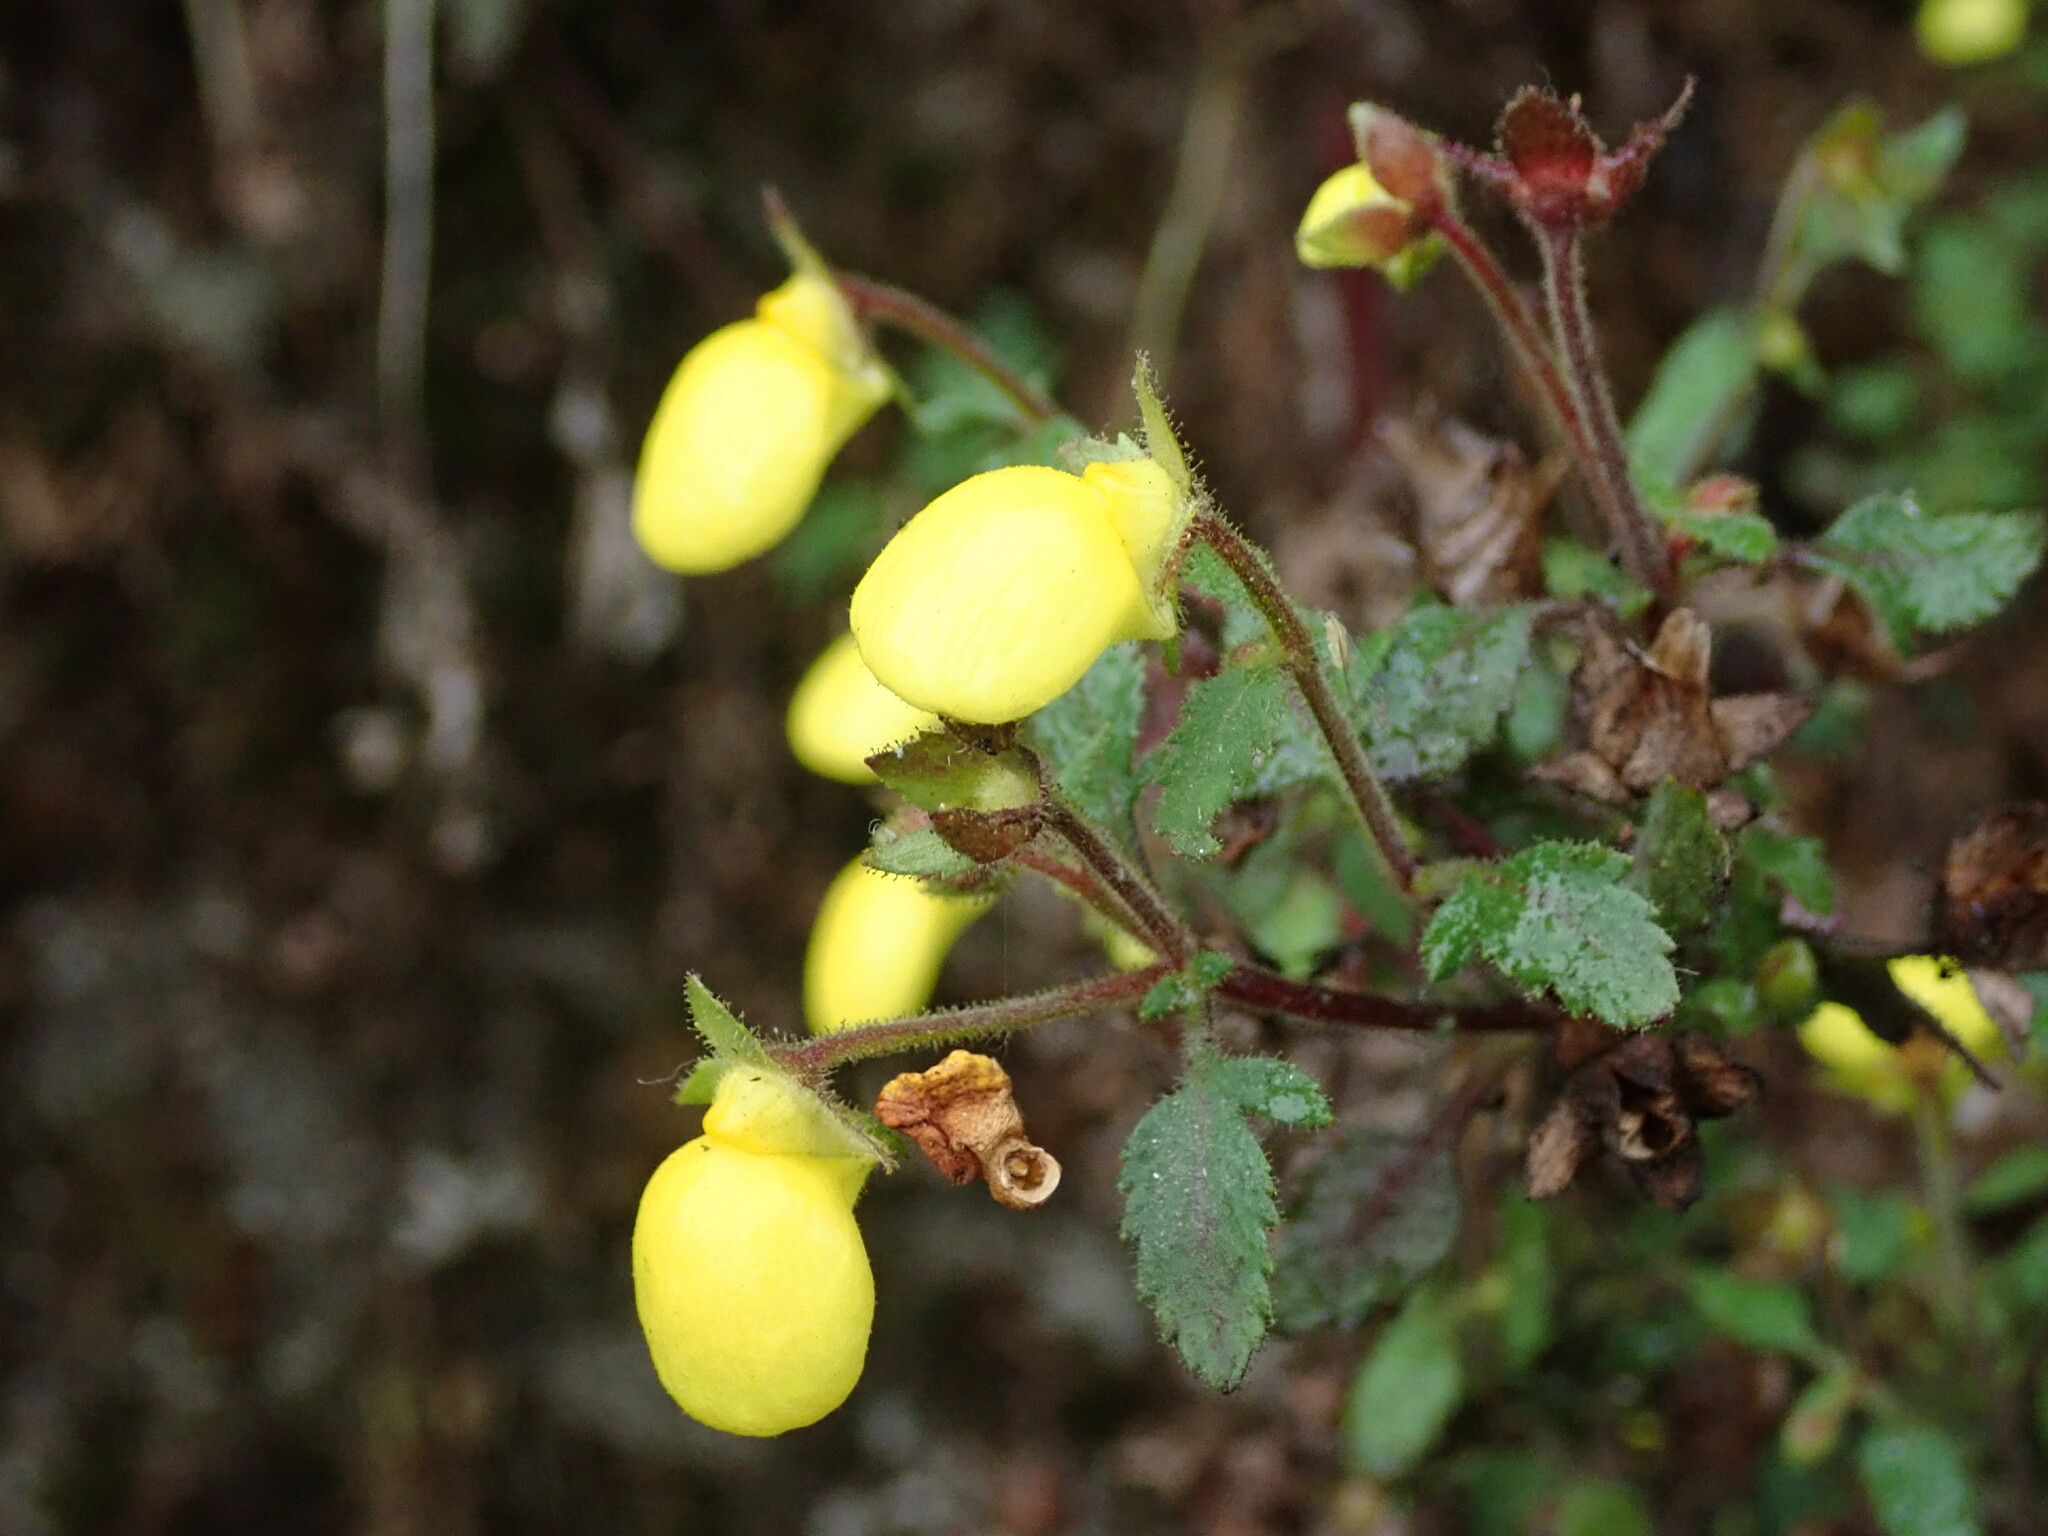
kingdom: Plantae
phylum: Tracheophyta
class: Magnoliopsida
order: Lamiales
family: Calceolariaceae
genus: Calceolaria
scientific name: Calceolaria tripartita
